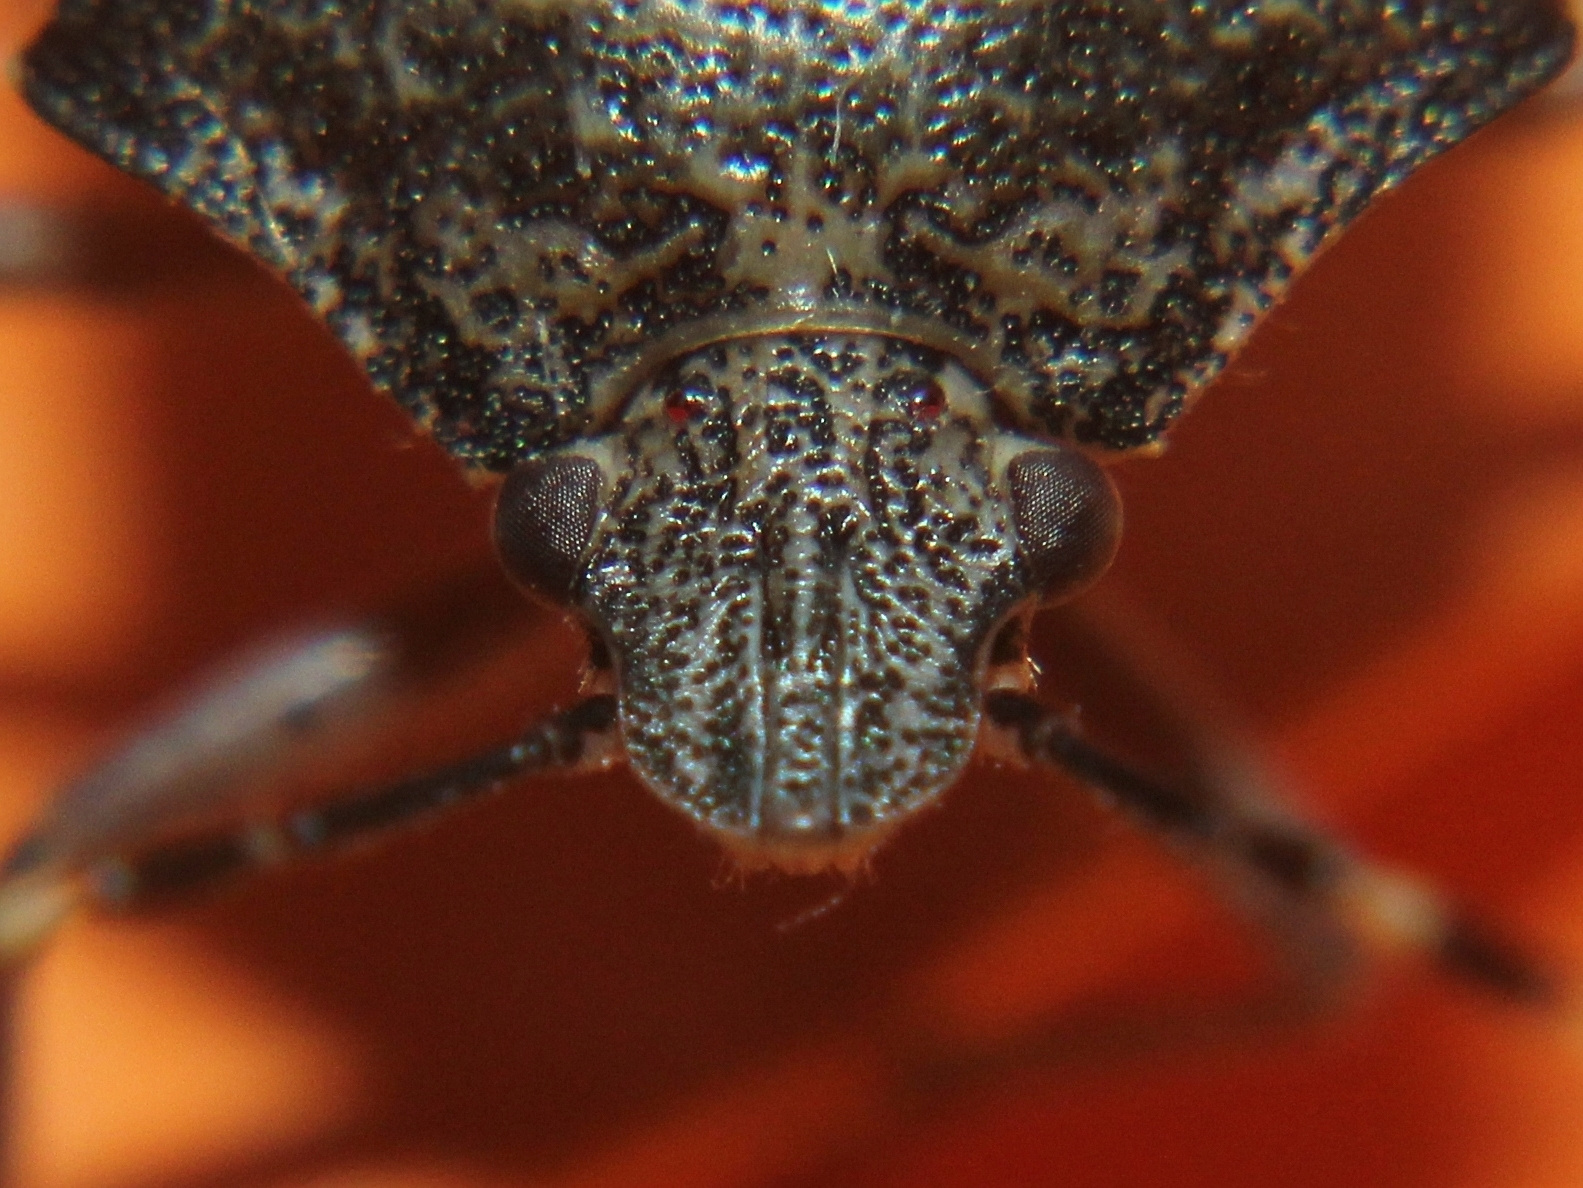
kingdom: Animalia
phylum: Arthropoda
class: Insecta
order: Hemiptera
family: Pentatomidae
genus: Rhaphigaster
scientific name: Rhaphigaster nebulosa
